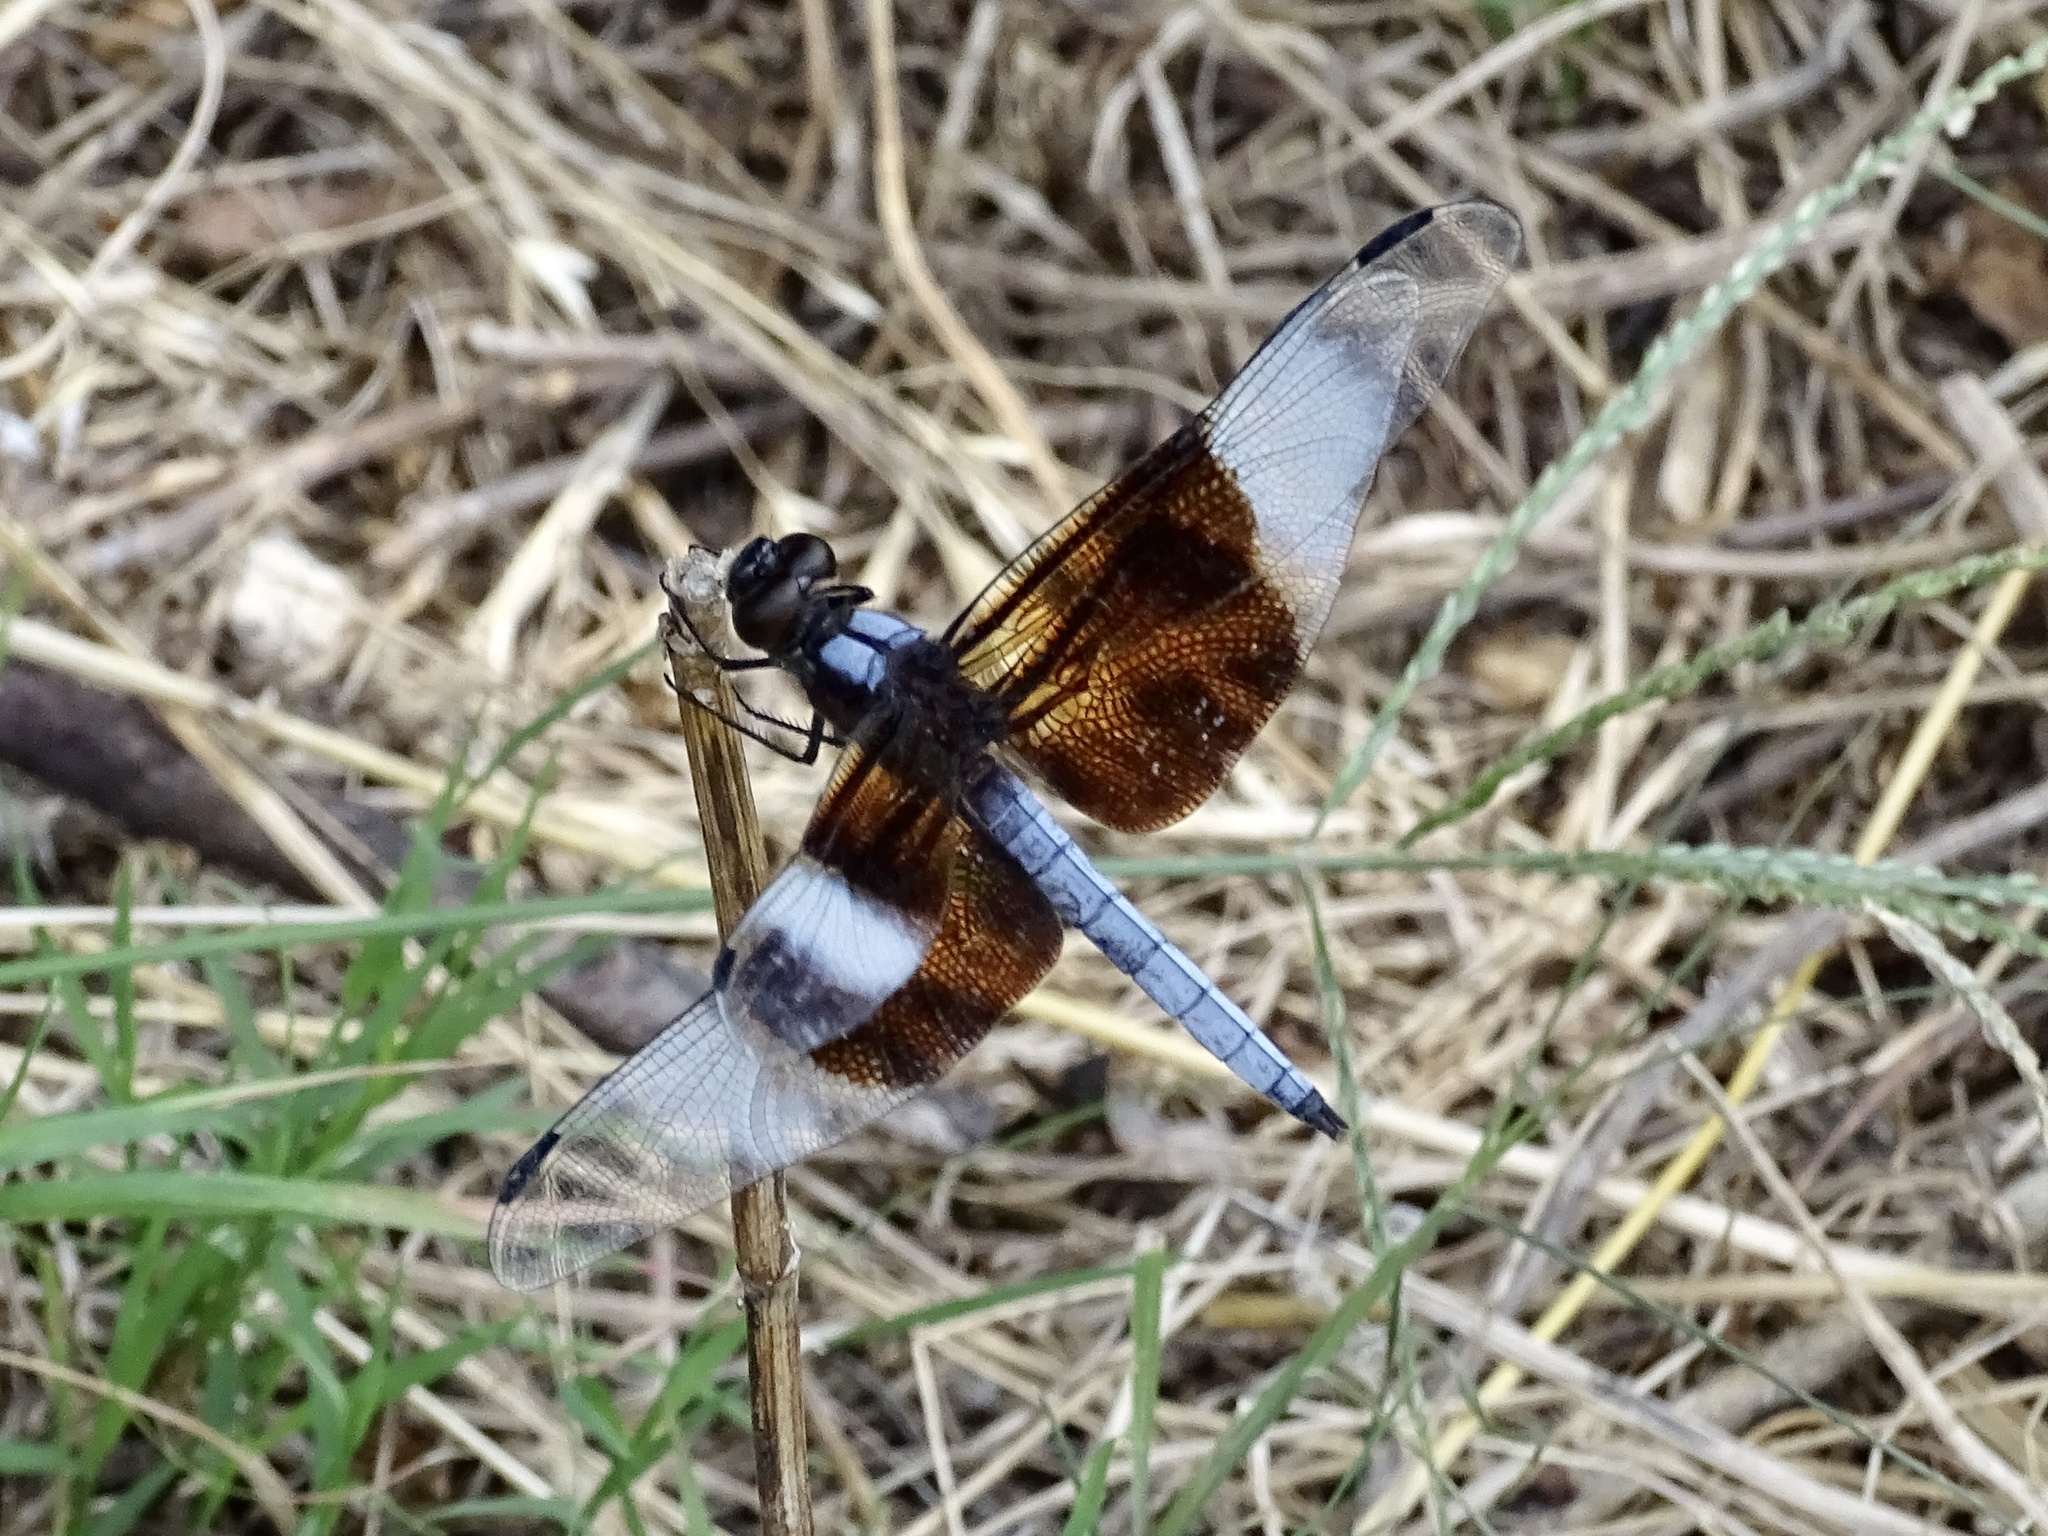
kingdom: Animalia
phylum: Arthropoda
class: Insecta
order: Odonata
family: Libellulidae
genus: Libellula
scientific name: Libellula luctuosa
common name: Widow skimmer
